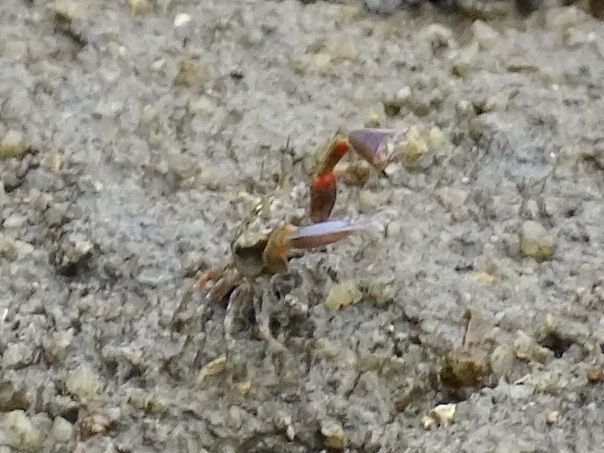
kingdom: Animalia
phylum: Arthropoda
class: Malacostraca
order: Decapoda
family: Dotillidae
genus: Tmethypocoelis
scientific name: Tmethypocoelis ceratophora
